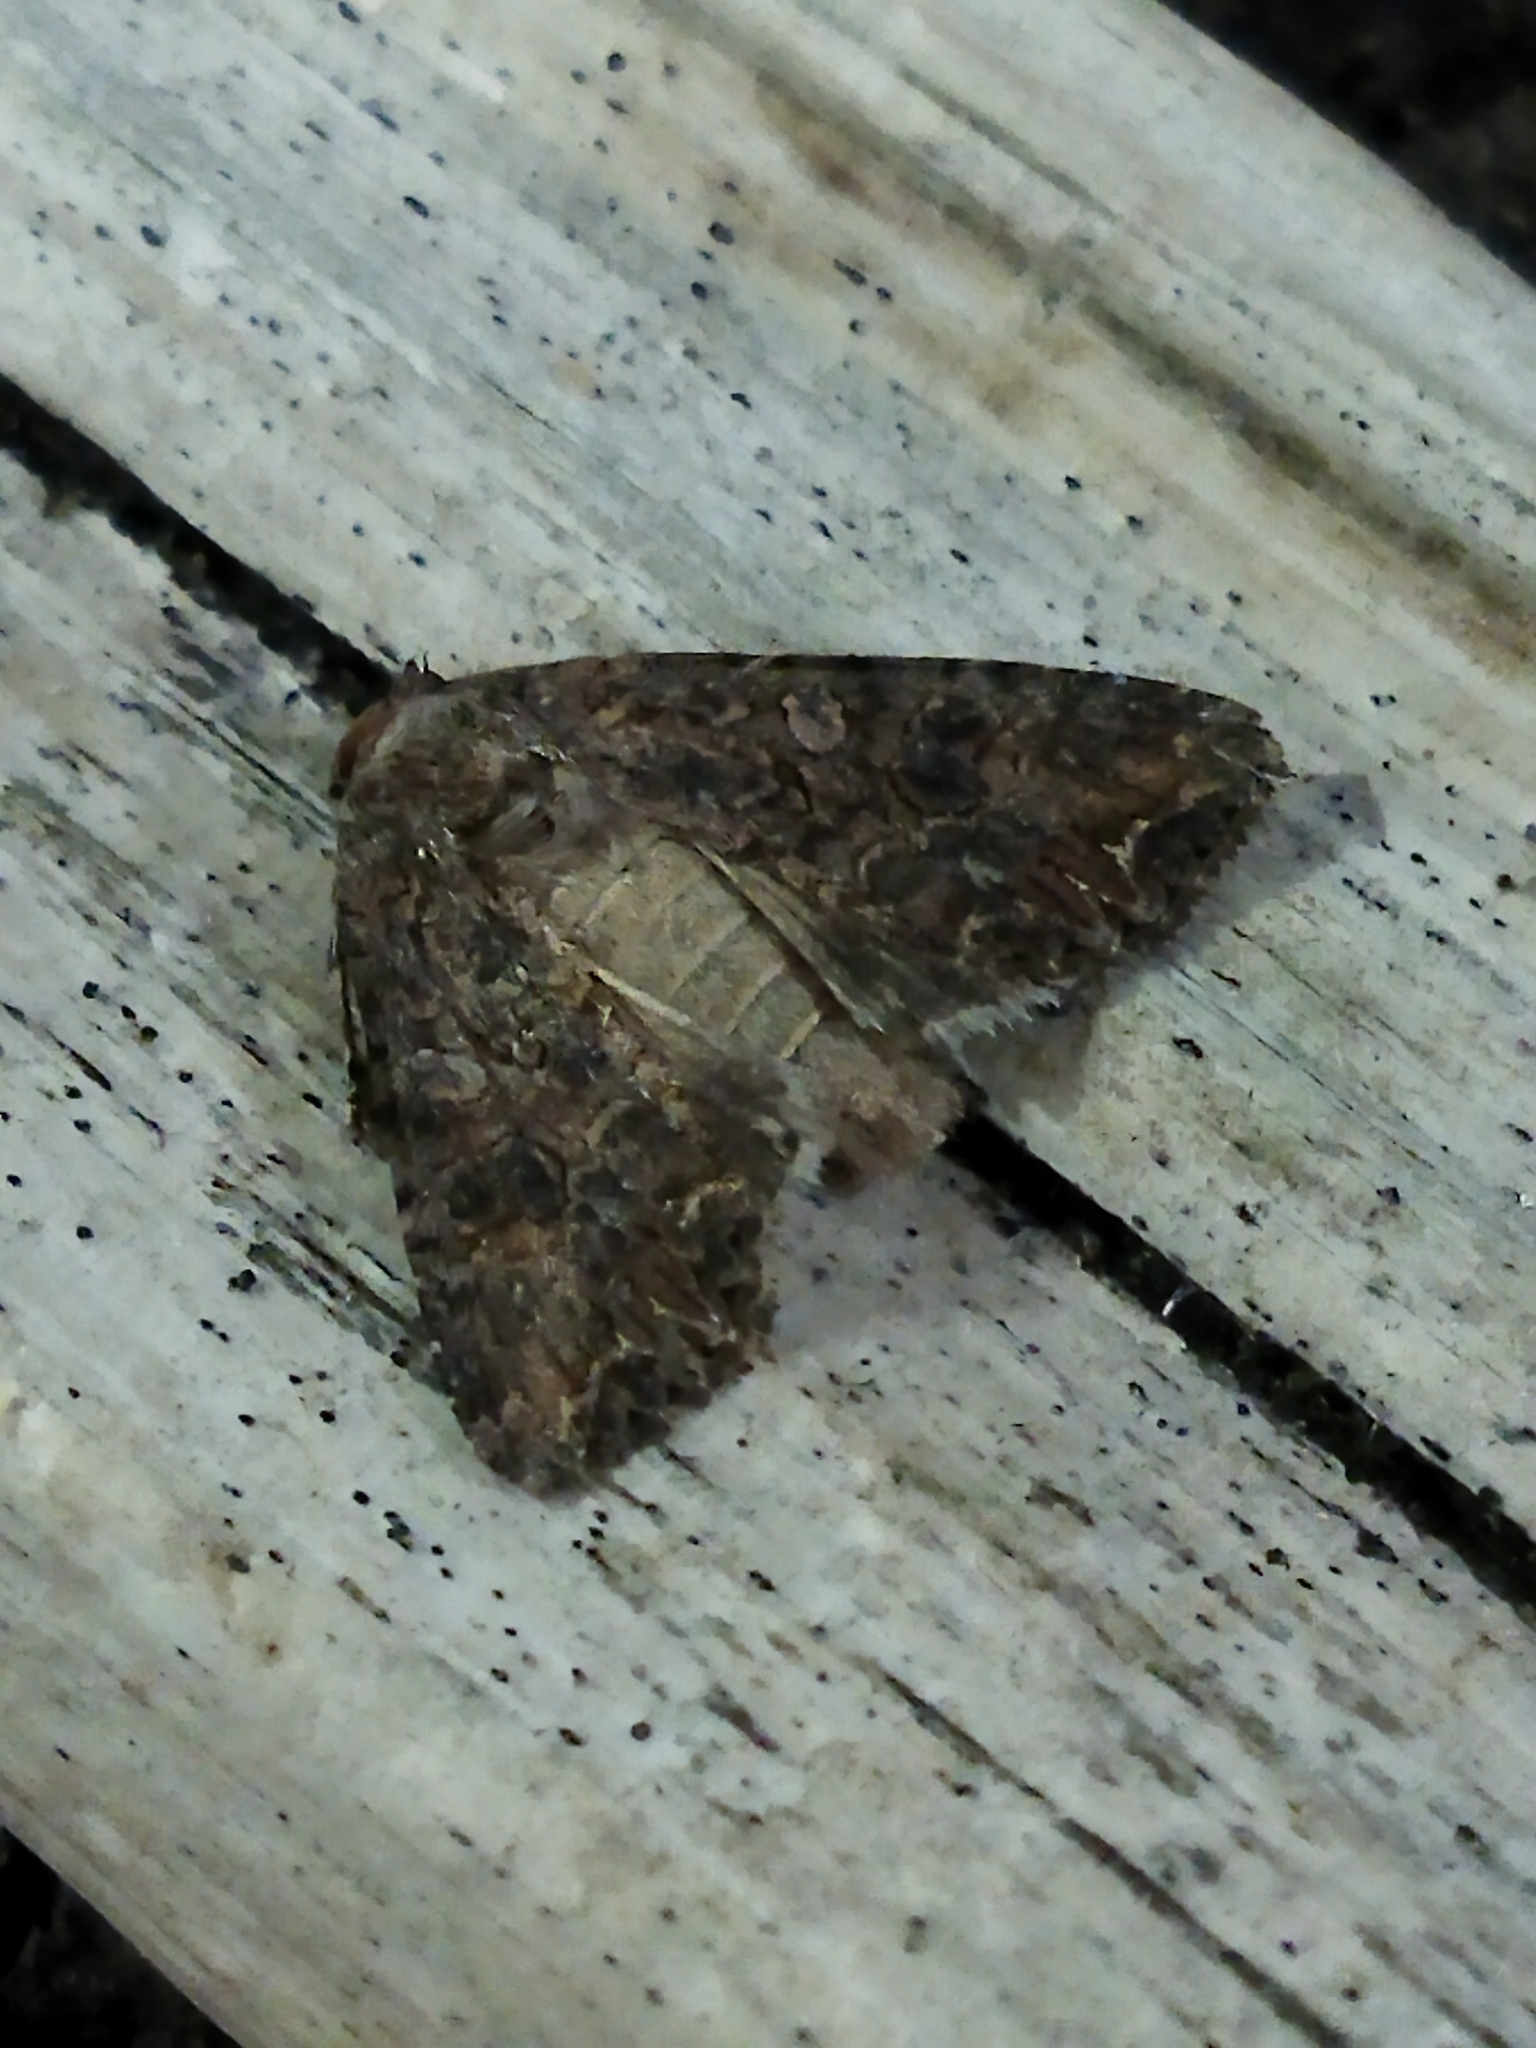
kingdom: Animalia
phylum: Arthropoda
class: Insecta
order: Lepidoptera
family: Noctuidae
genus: Anarta
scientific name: Anarta trifolii
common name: Clover cutworm moth
